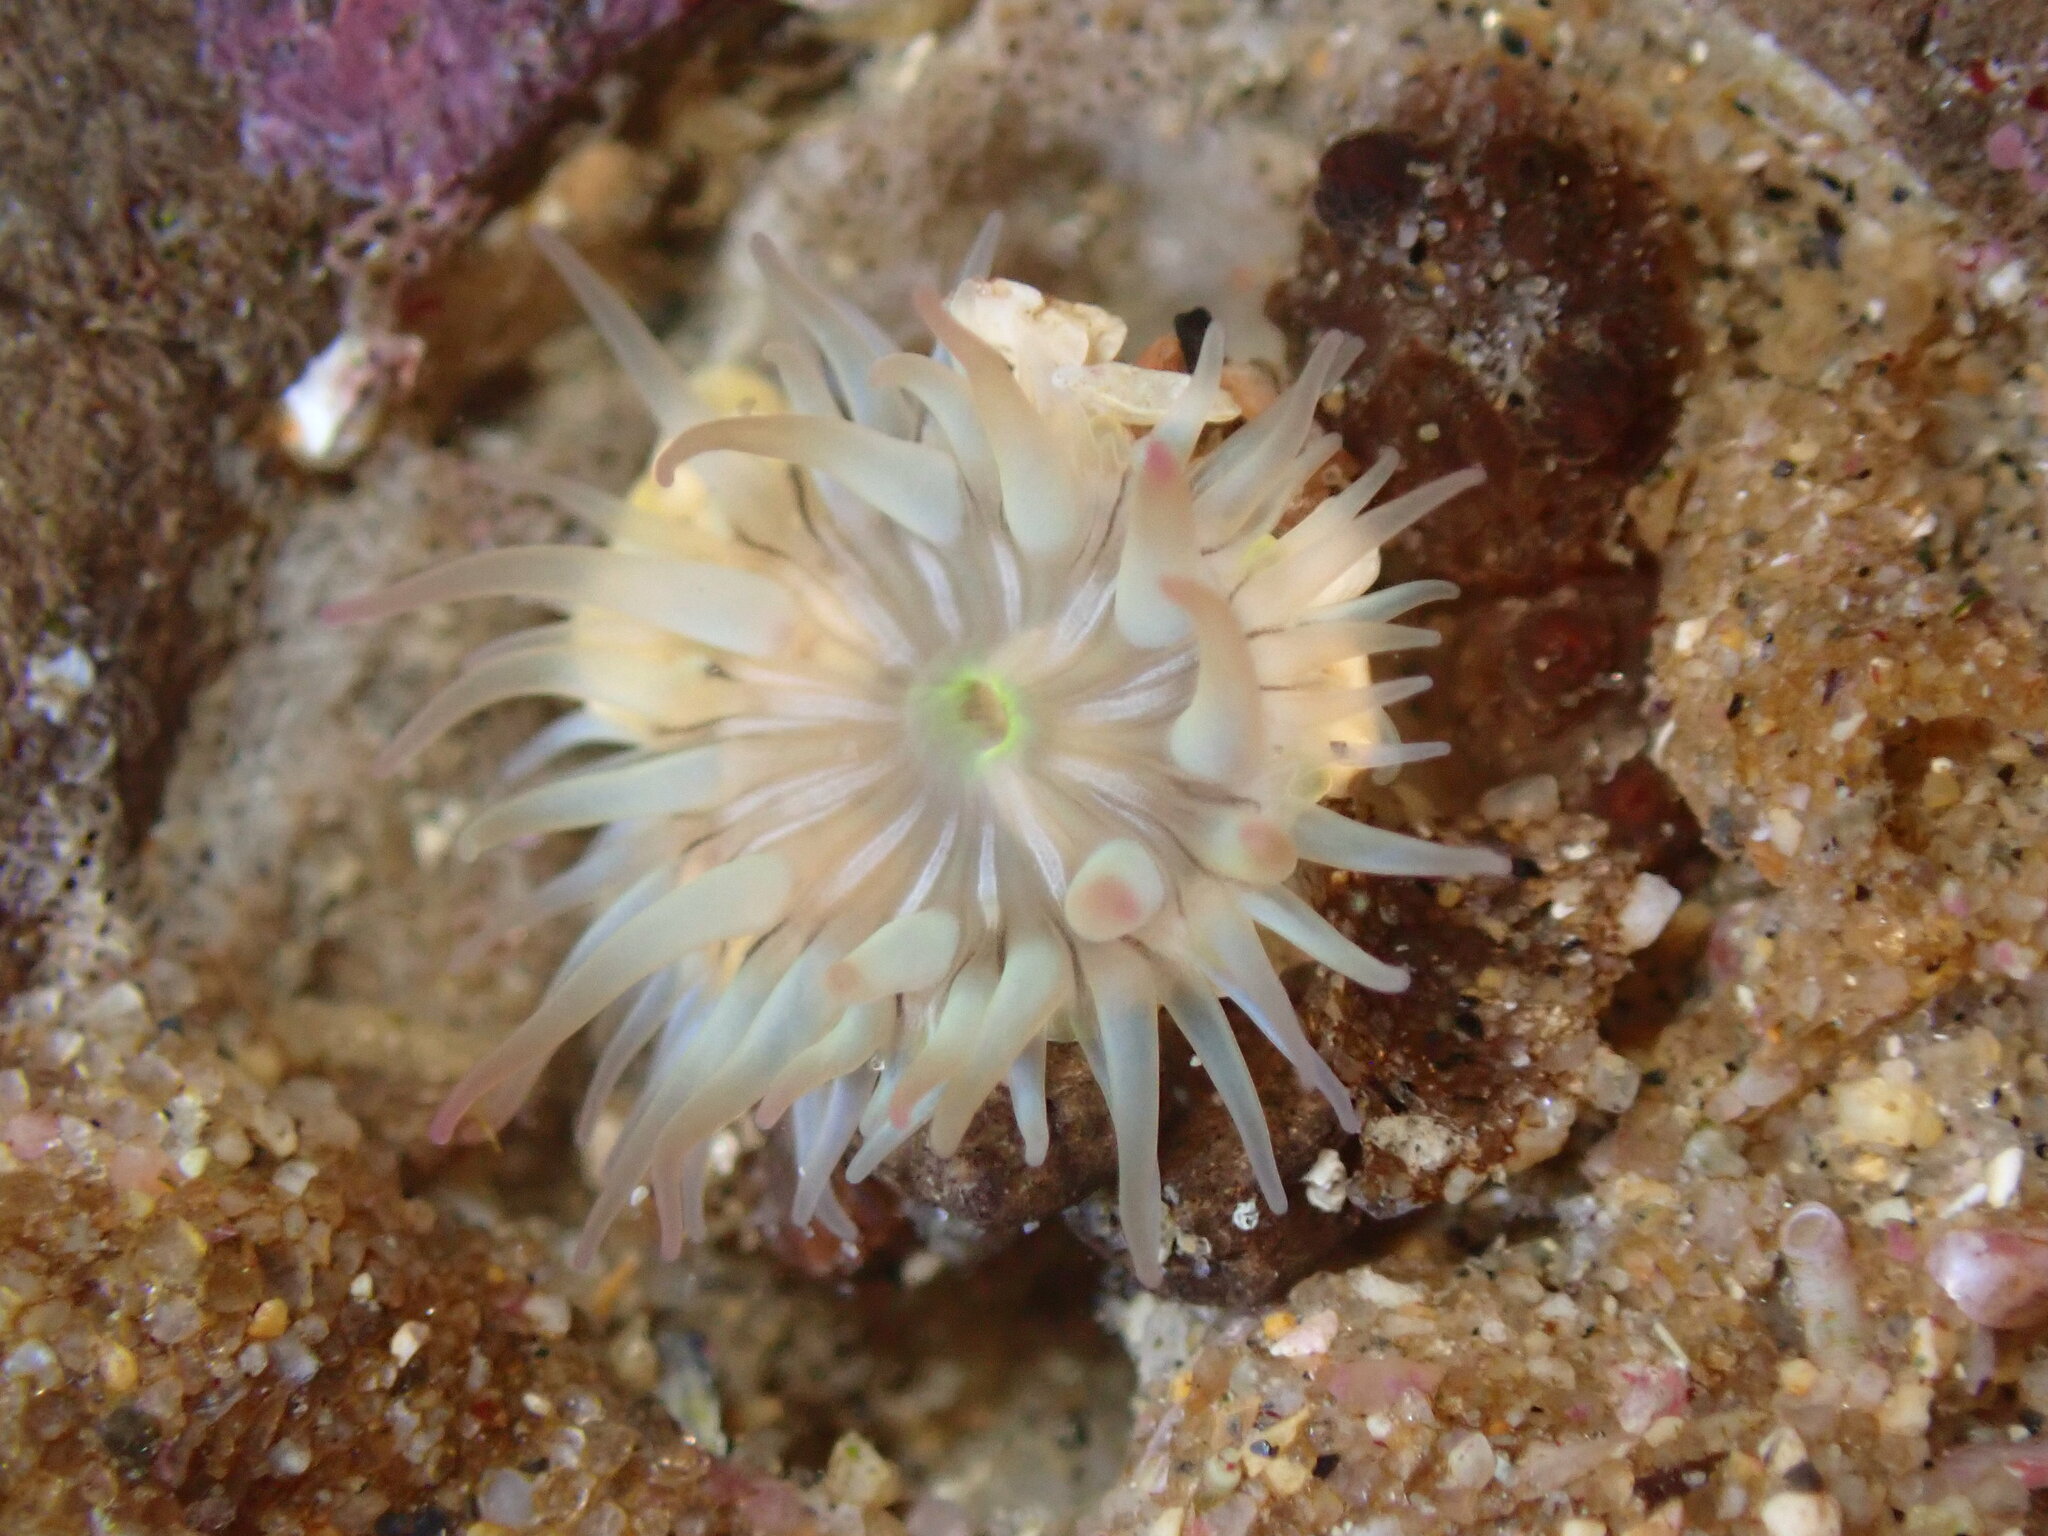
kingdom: Animalia
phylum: Cnidaria
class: Anthozoa
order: Actiniaria
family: Actiniidae
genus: Anthopleura
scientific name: Anthopleura sola
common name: Sun anemone
